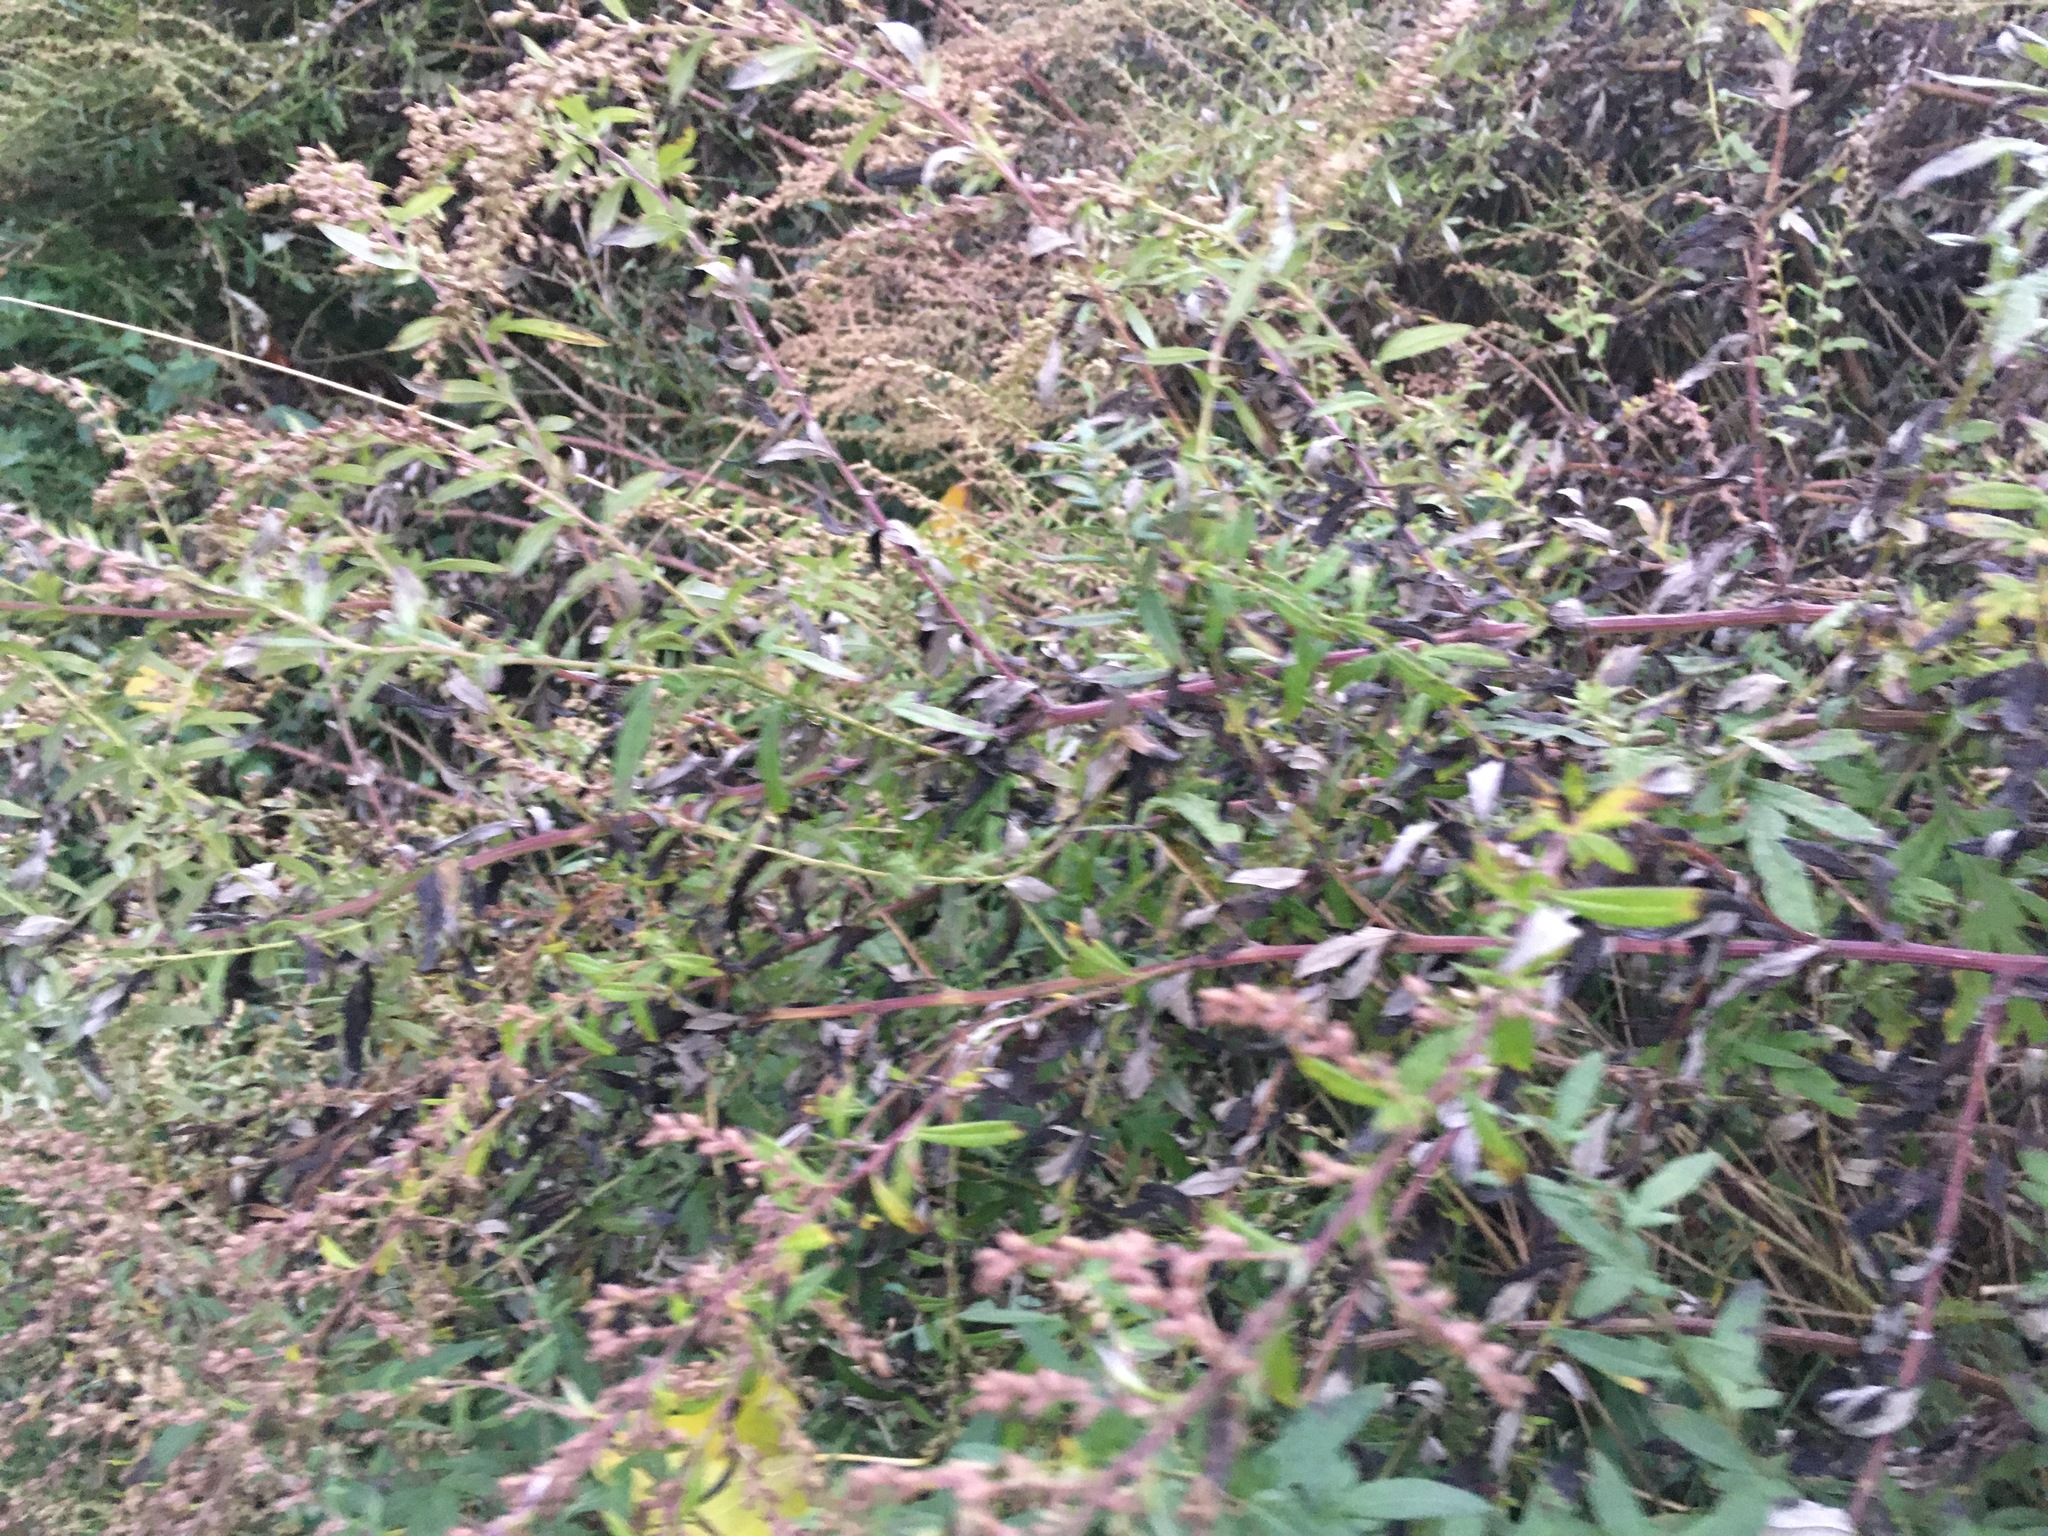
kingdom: Plantae
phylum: Tracheophyta
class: Magnoliopsida
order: Asterales
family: Asteraceae
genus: Artemisia
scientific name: Artemisia vulgaris
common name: Mugwort
